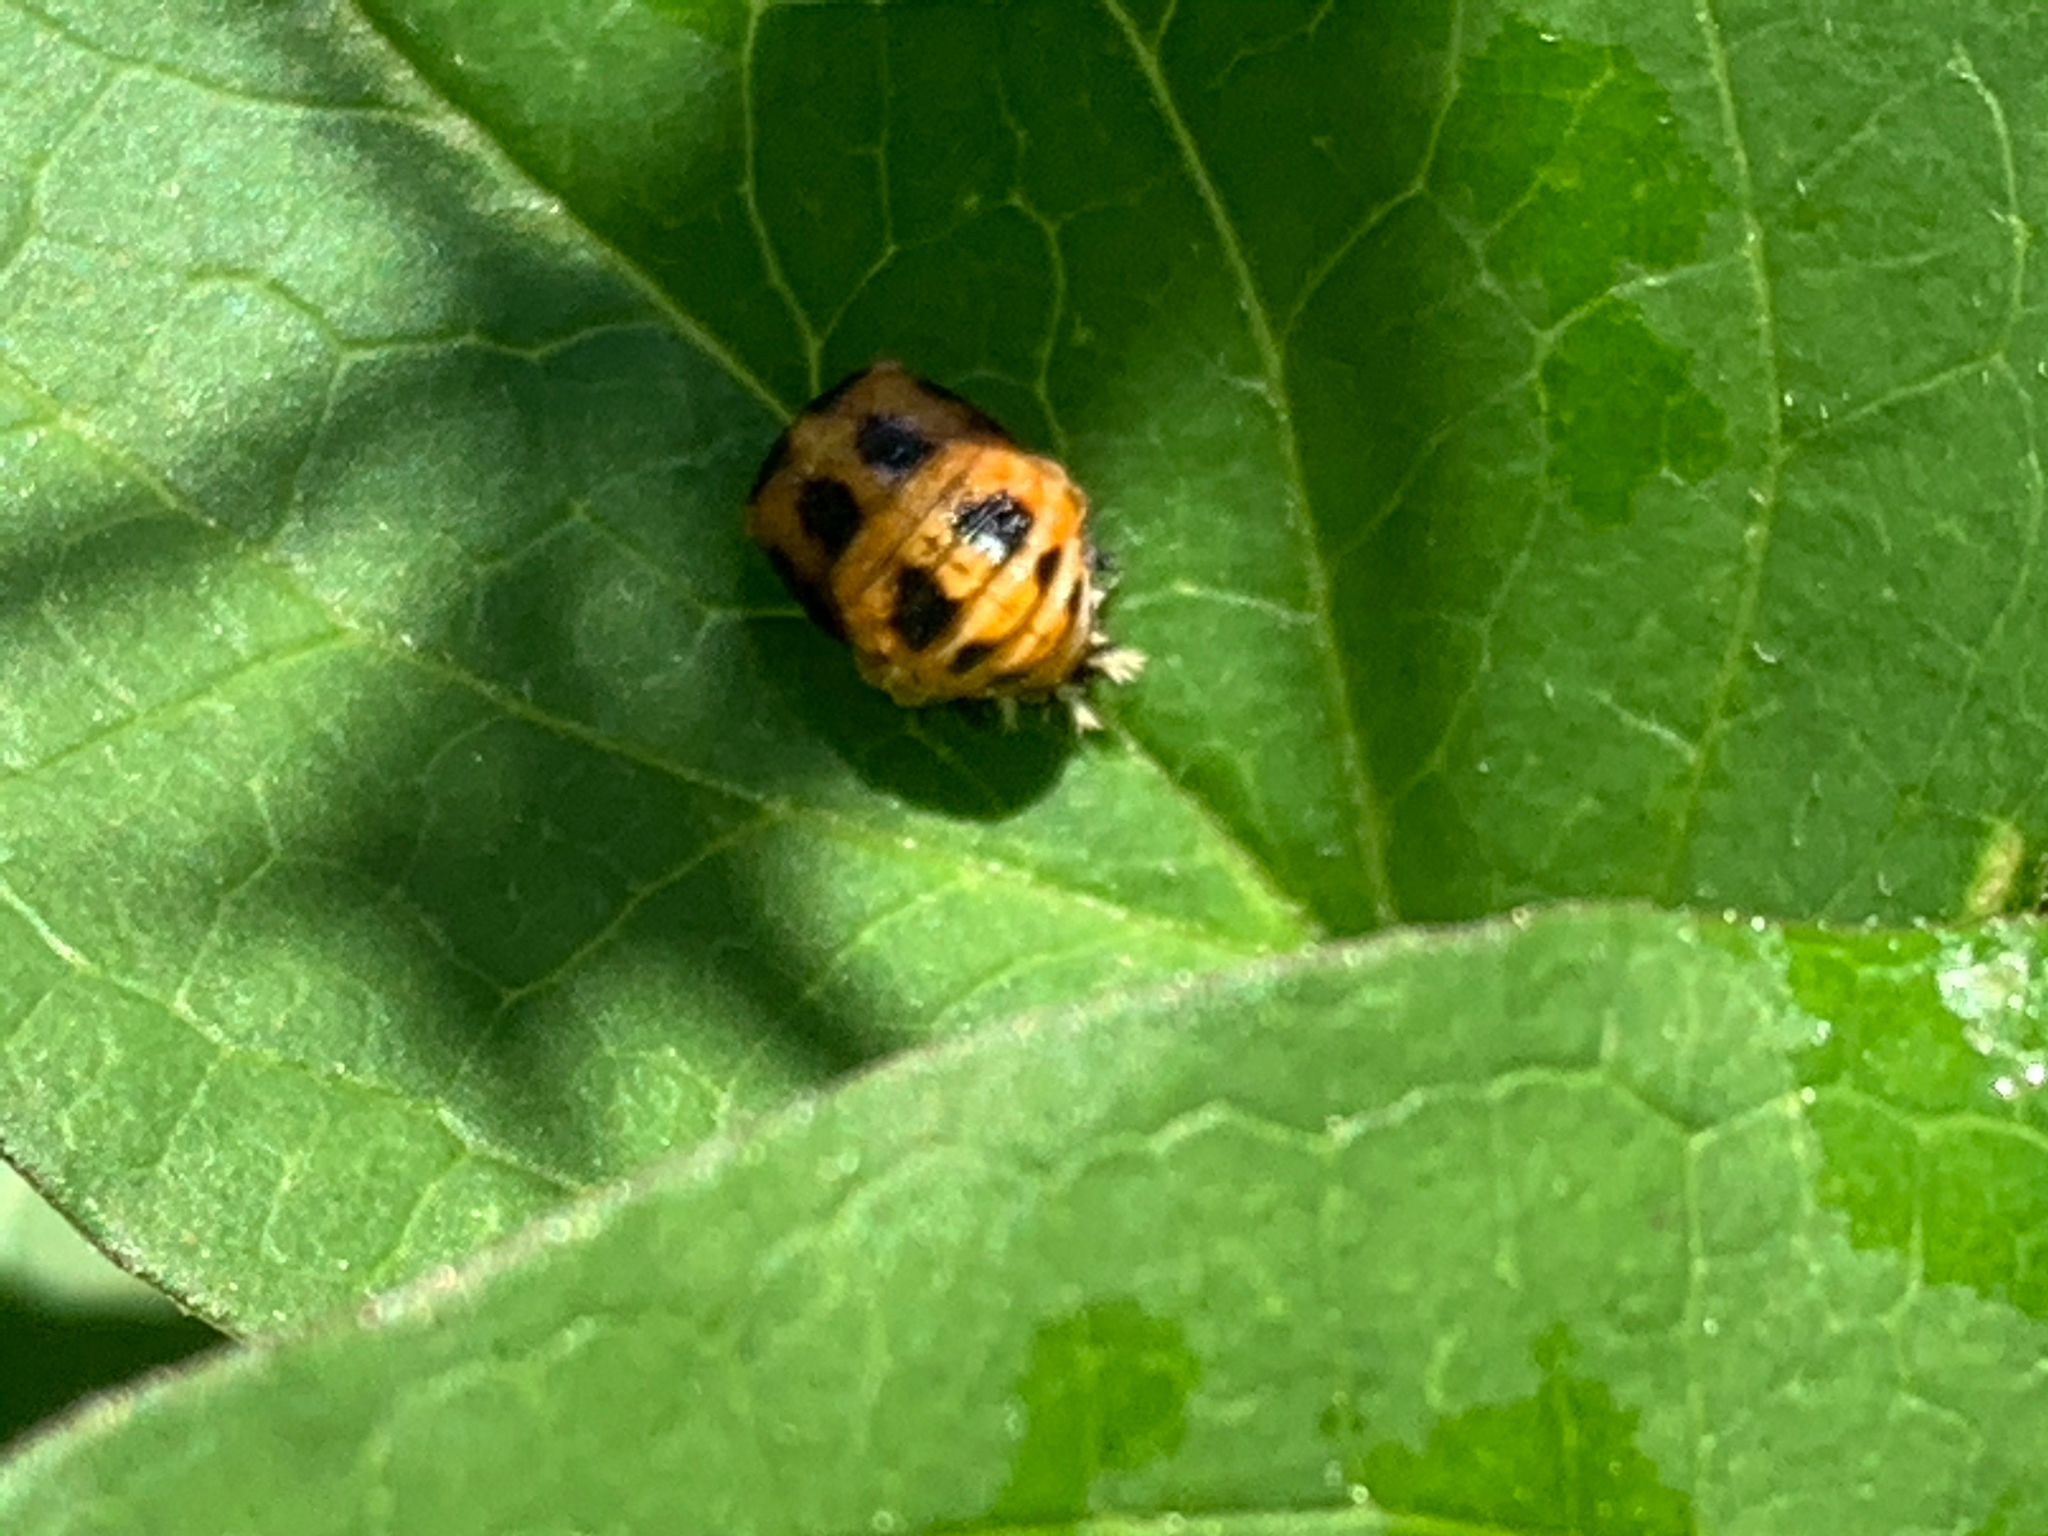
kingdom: Animalia
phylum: Arthropoda
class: Insecta
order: Coleoptera
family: Coccinellidae
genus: Harmonia
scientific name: Harmonia axyridis
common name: Harlequin ladybird
